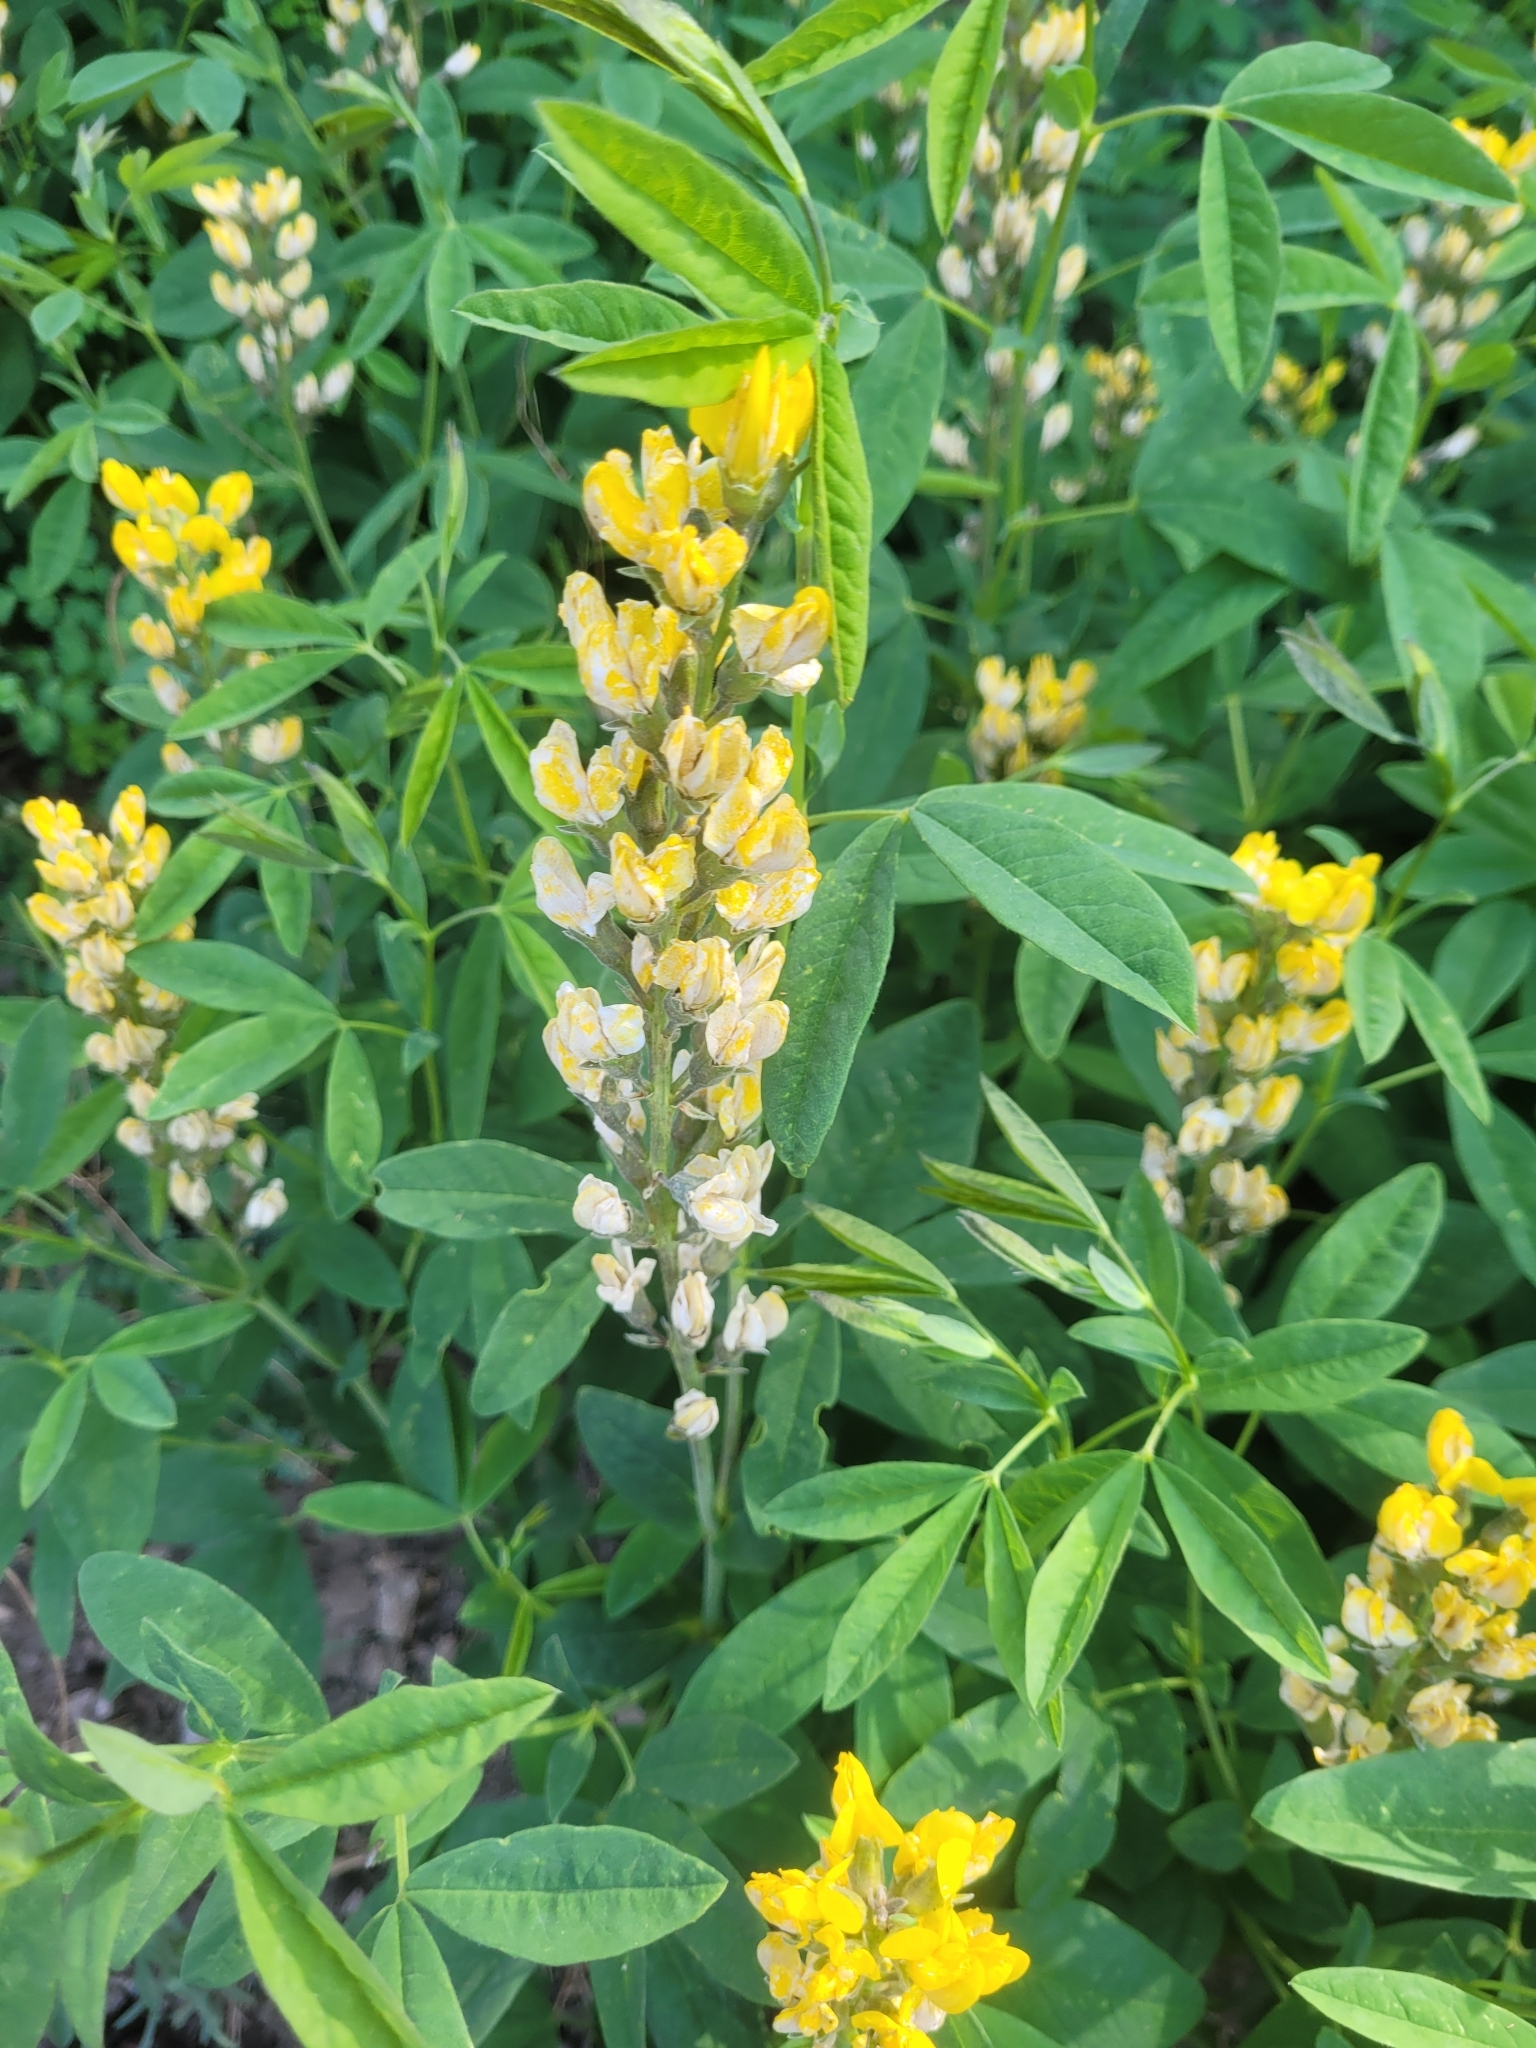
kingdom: Plantae
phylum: Tracheophyta
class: Magnoliopsida
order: Fabales
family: Fabaceae
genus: Thermopsis
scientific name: Thermopsis montana
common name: False lupin
